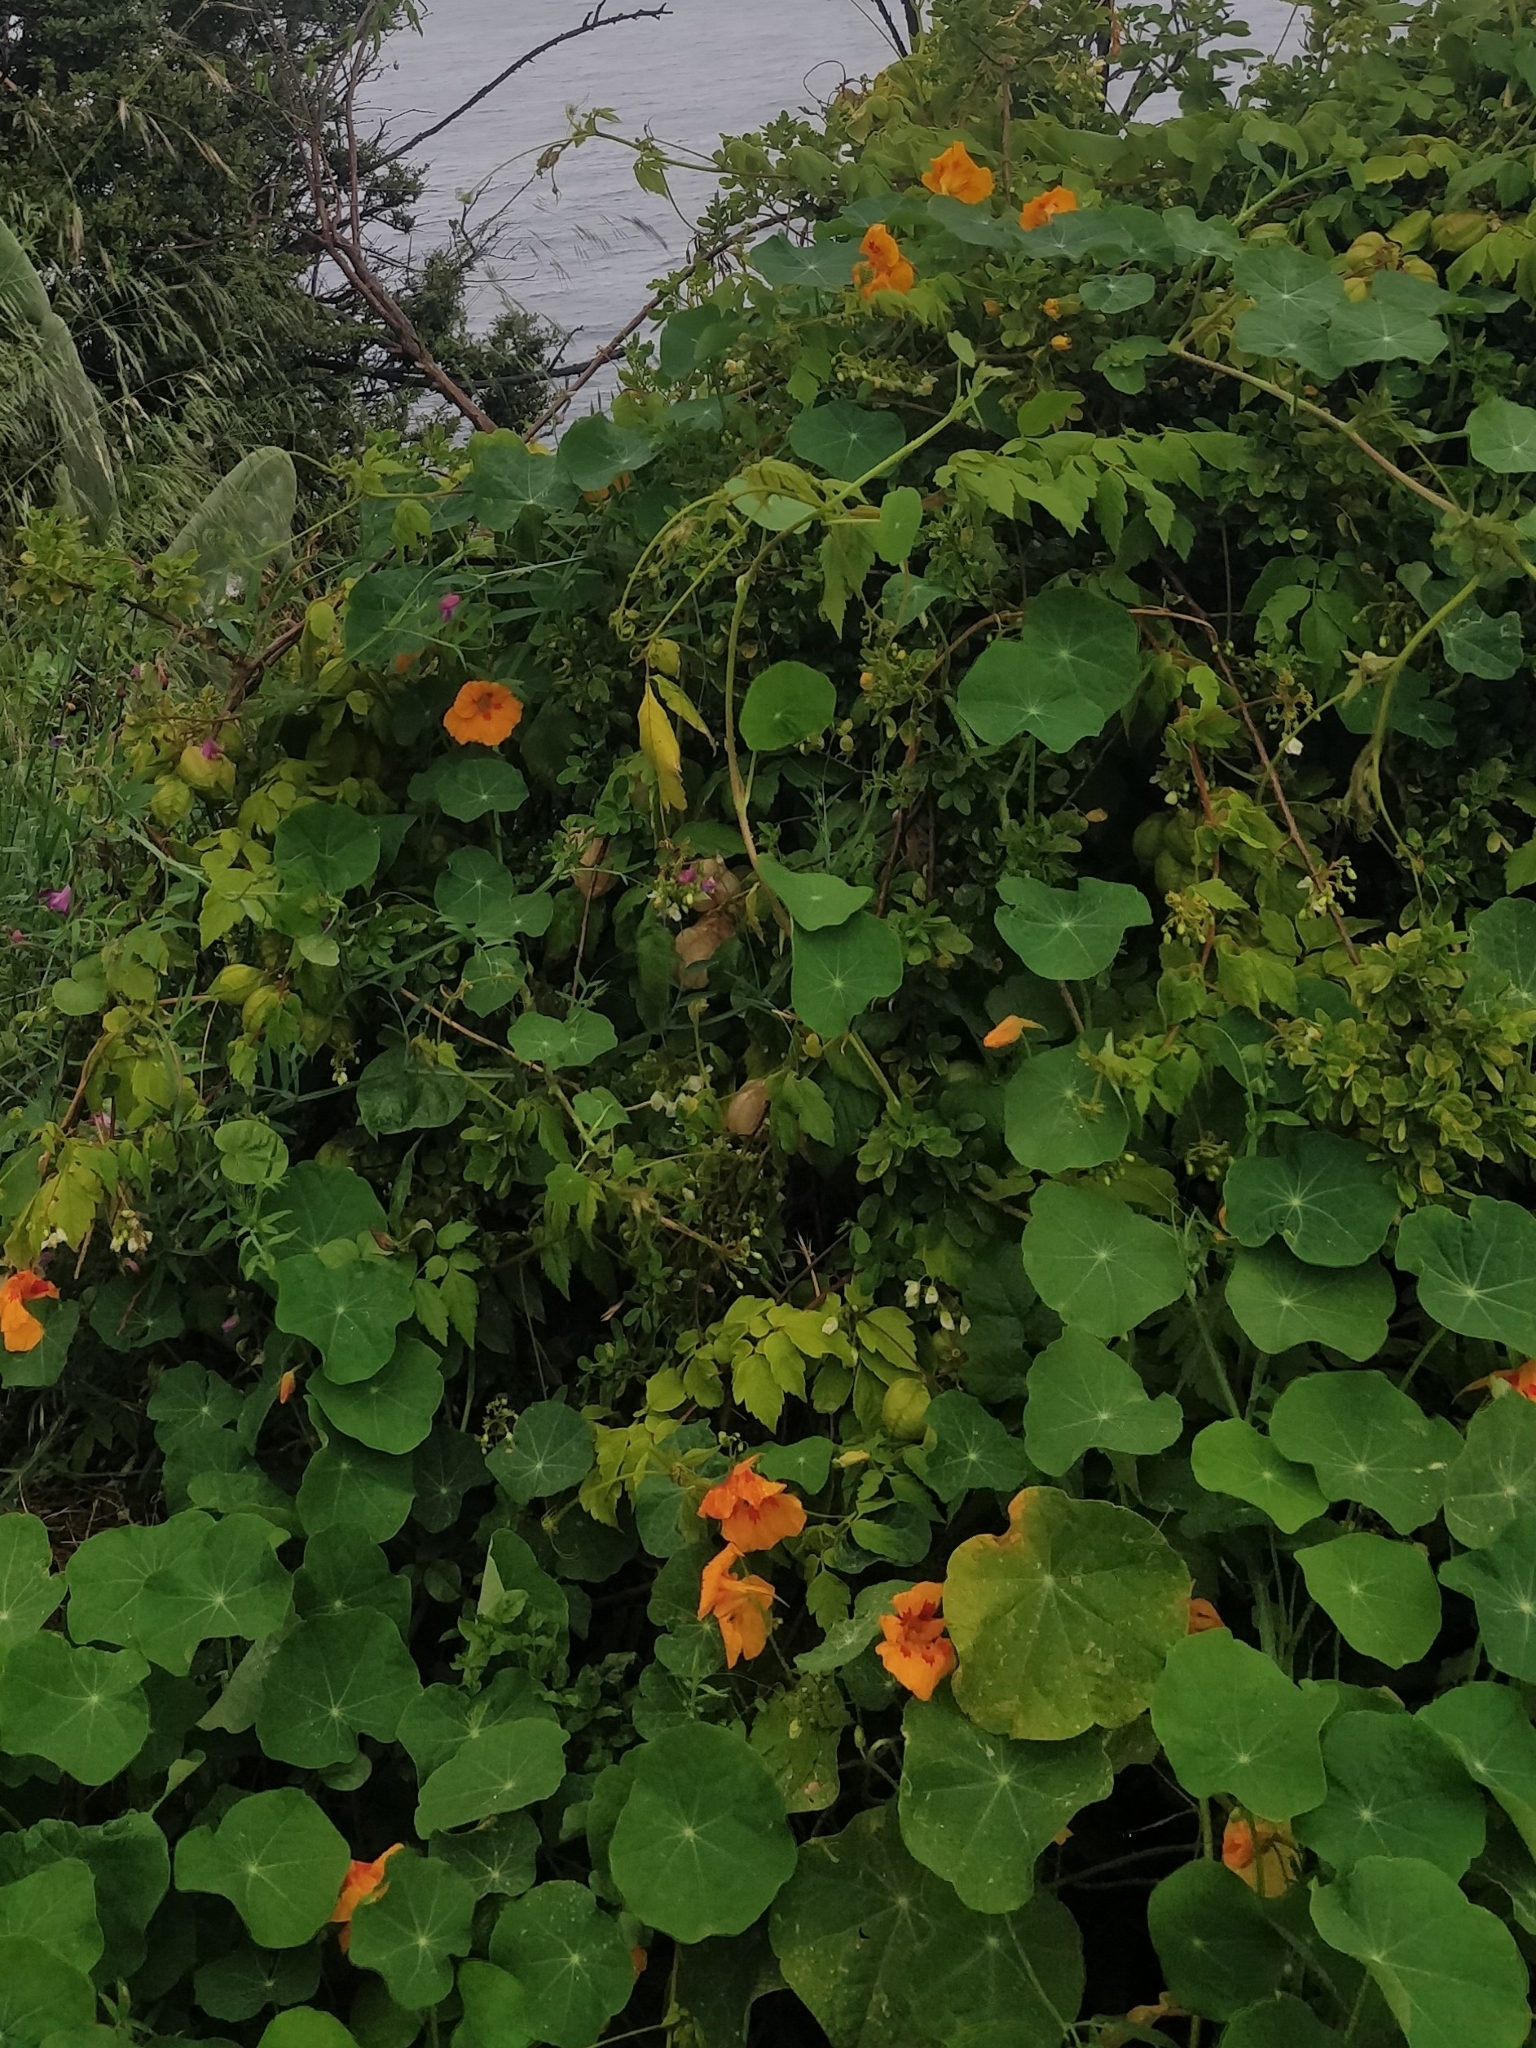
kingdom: Plantae
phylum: Tracheophyta
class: Magnoliopsida
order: Brassicales
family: Tropaeolaceae
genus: Tropaeolum
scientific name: Tropaeolum majus
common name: Nasturtium
